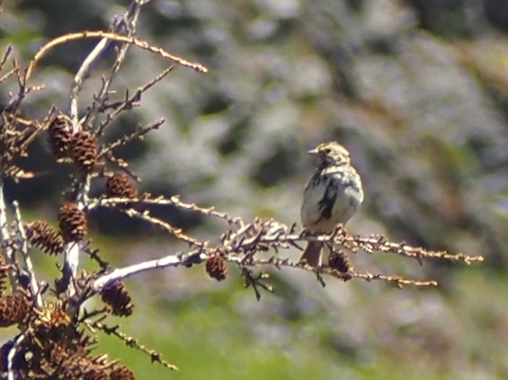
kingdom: Animalia
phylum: Chordata
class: Aves
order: Passeriformes
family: Passerellidae
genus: Passerculus
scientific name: Passerculus sandwichensis
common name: Savannah sparrow
